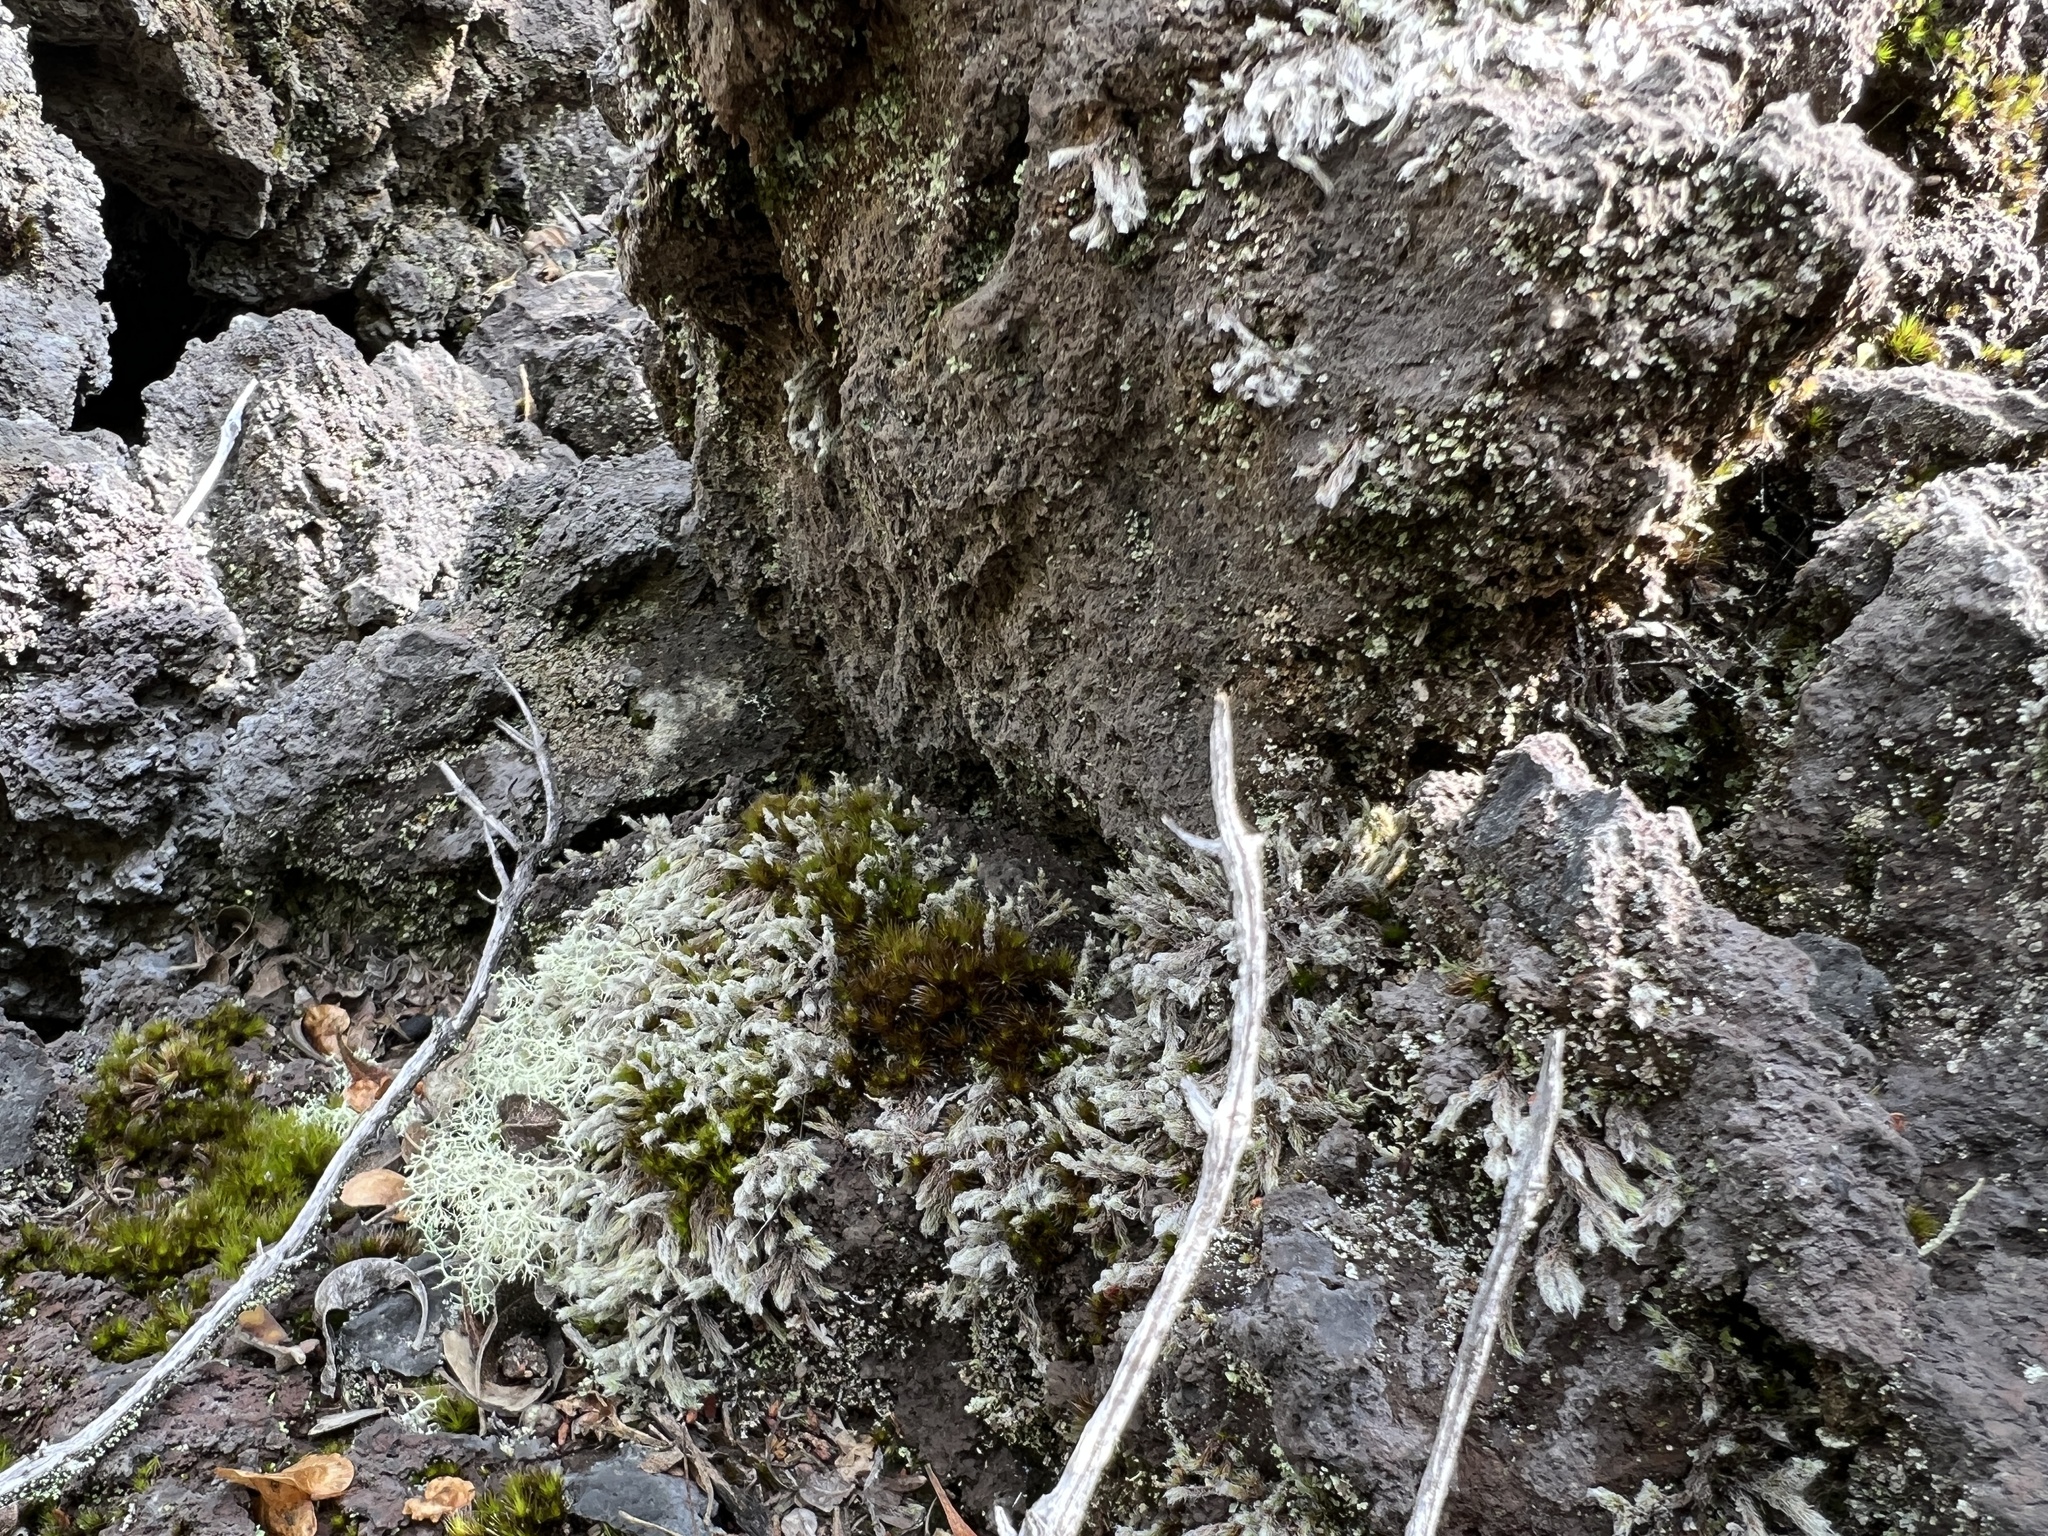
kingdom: Plantae
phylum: Bryophyta
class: Bryopsida
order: Grimmiales
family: Grimmiaceae
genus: Racomitrium
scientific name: Racomitrium lanuginosum
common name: Hoary rock moss
